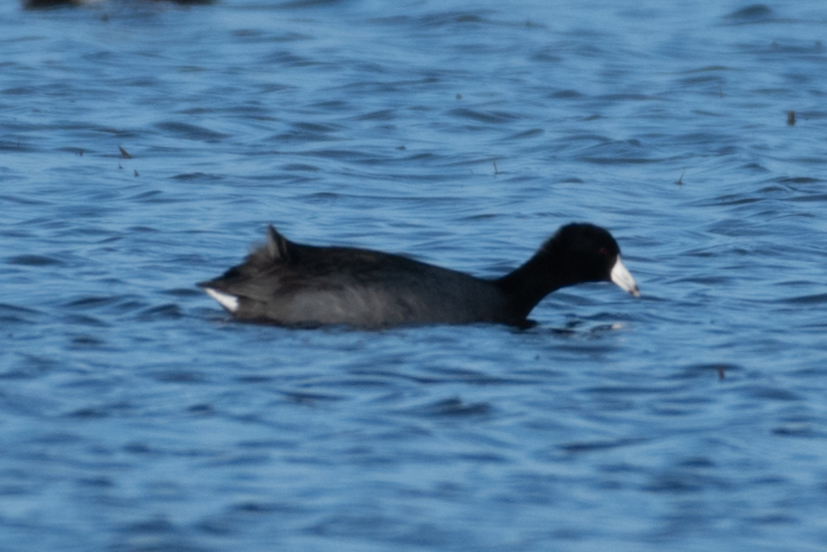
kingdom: Animalia
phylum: Chordata
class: Aves
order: Gruiformes
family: Rallidae
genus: Fulica
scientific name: Fulica americana
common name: American coot
